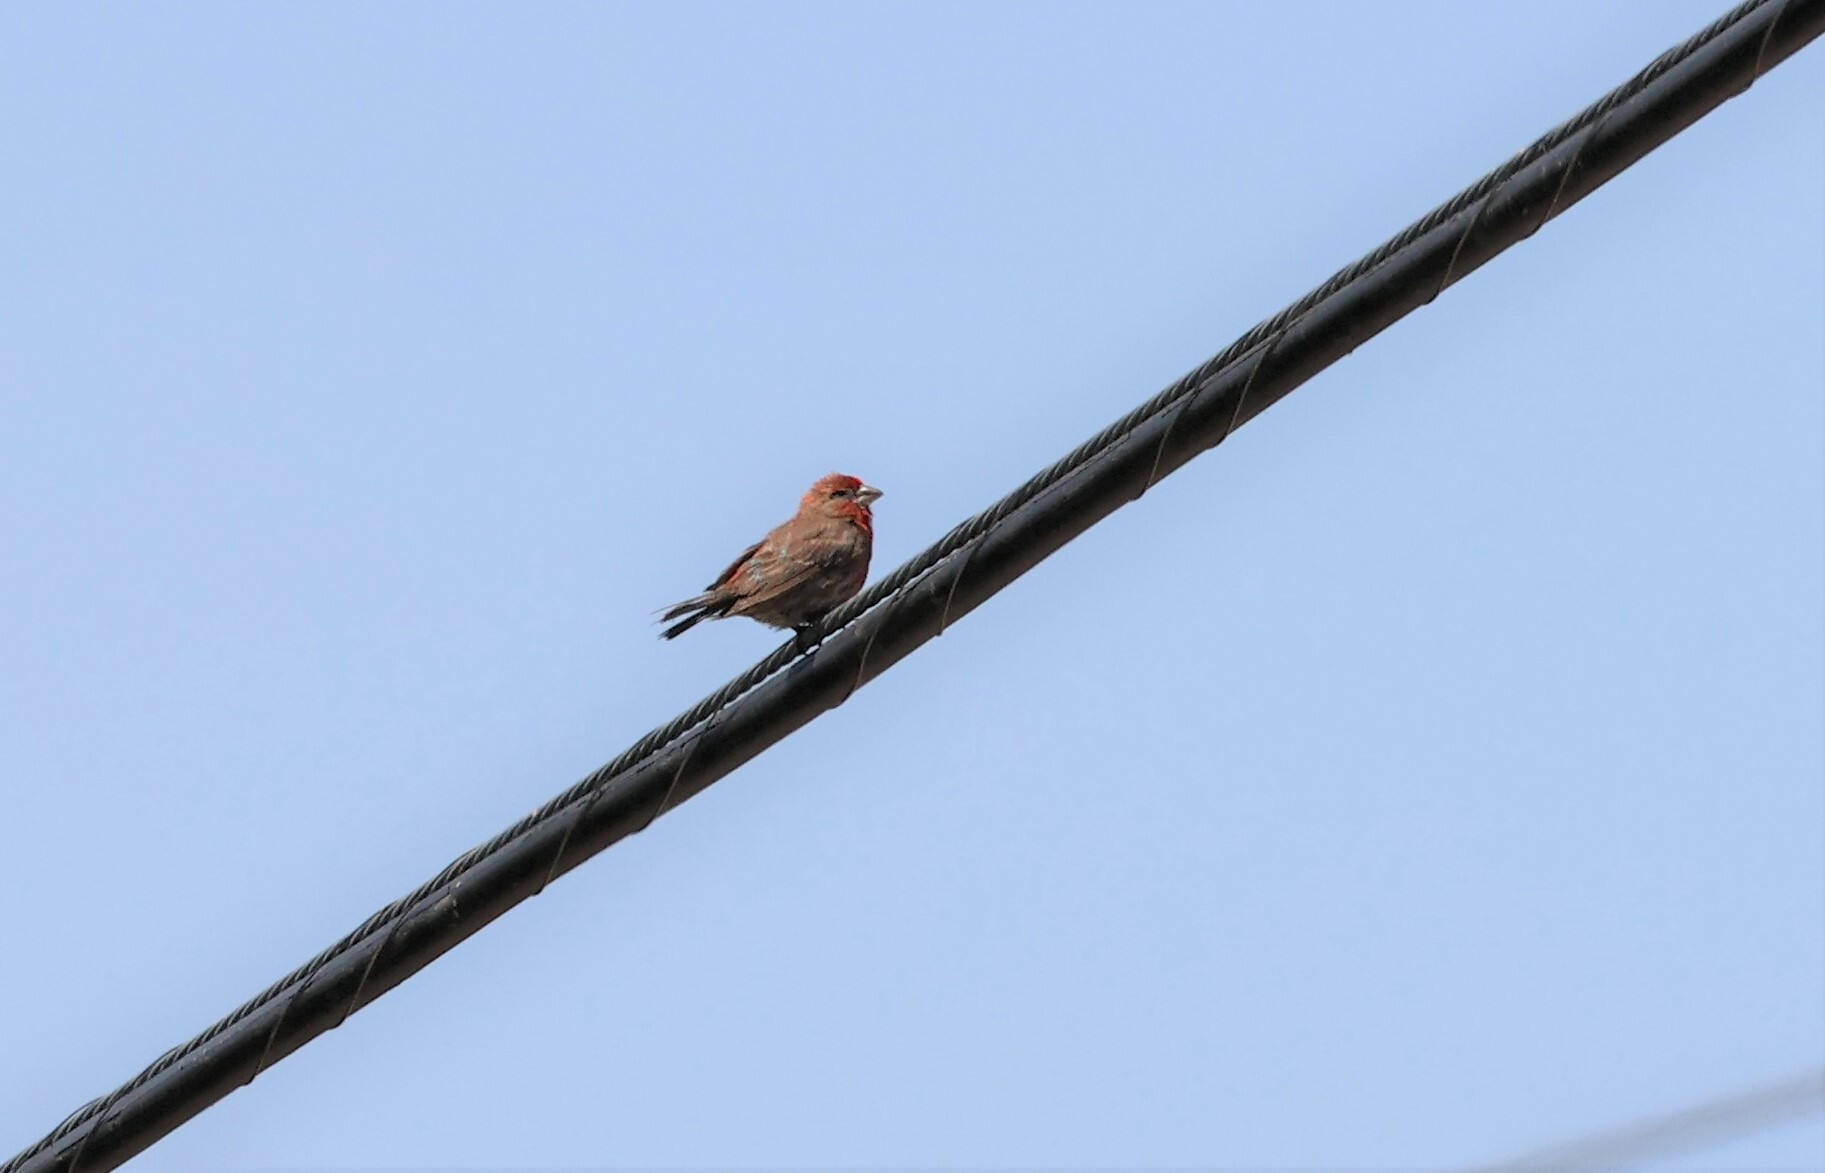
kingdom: Animalia
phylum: Chordata
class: Aves
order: Passeriformes
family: Fringillidae
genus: Haemorhous
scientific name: Haemorhous mexicanus
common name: House finch
